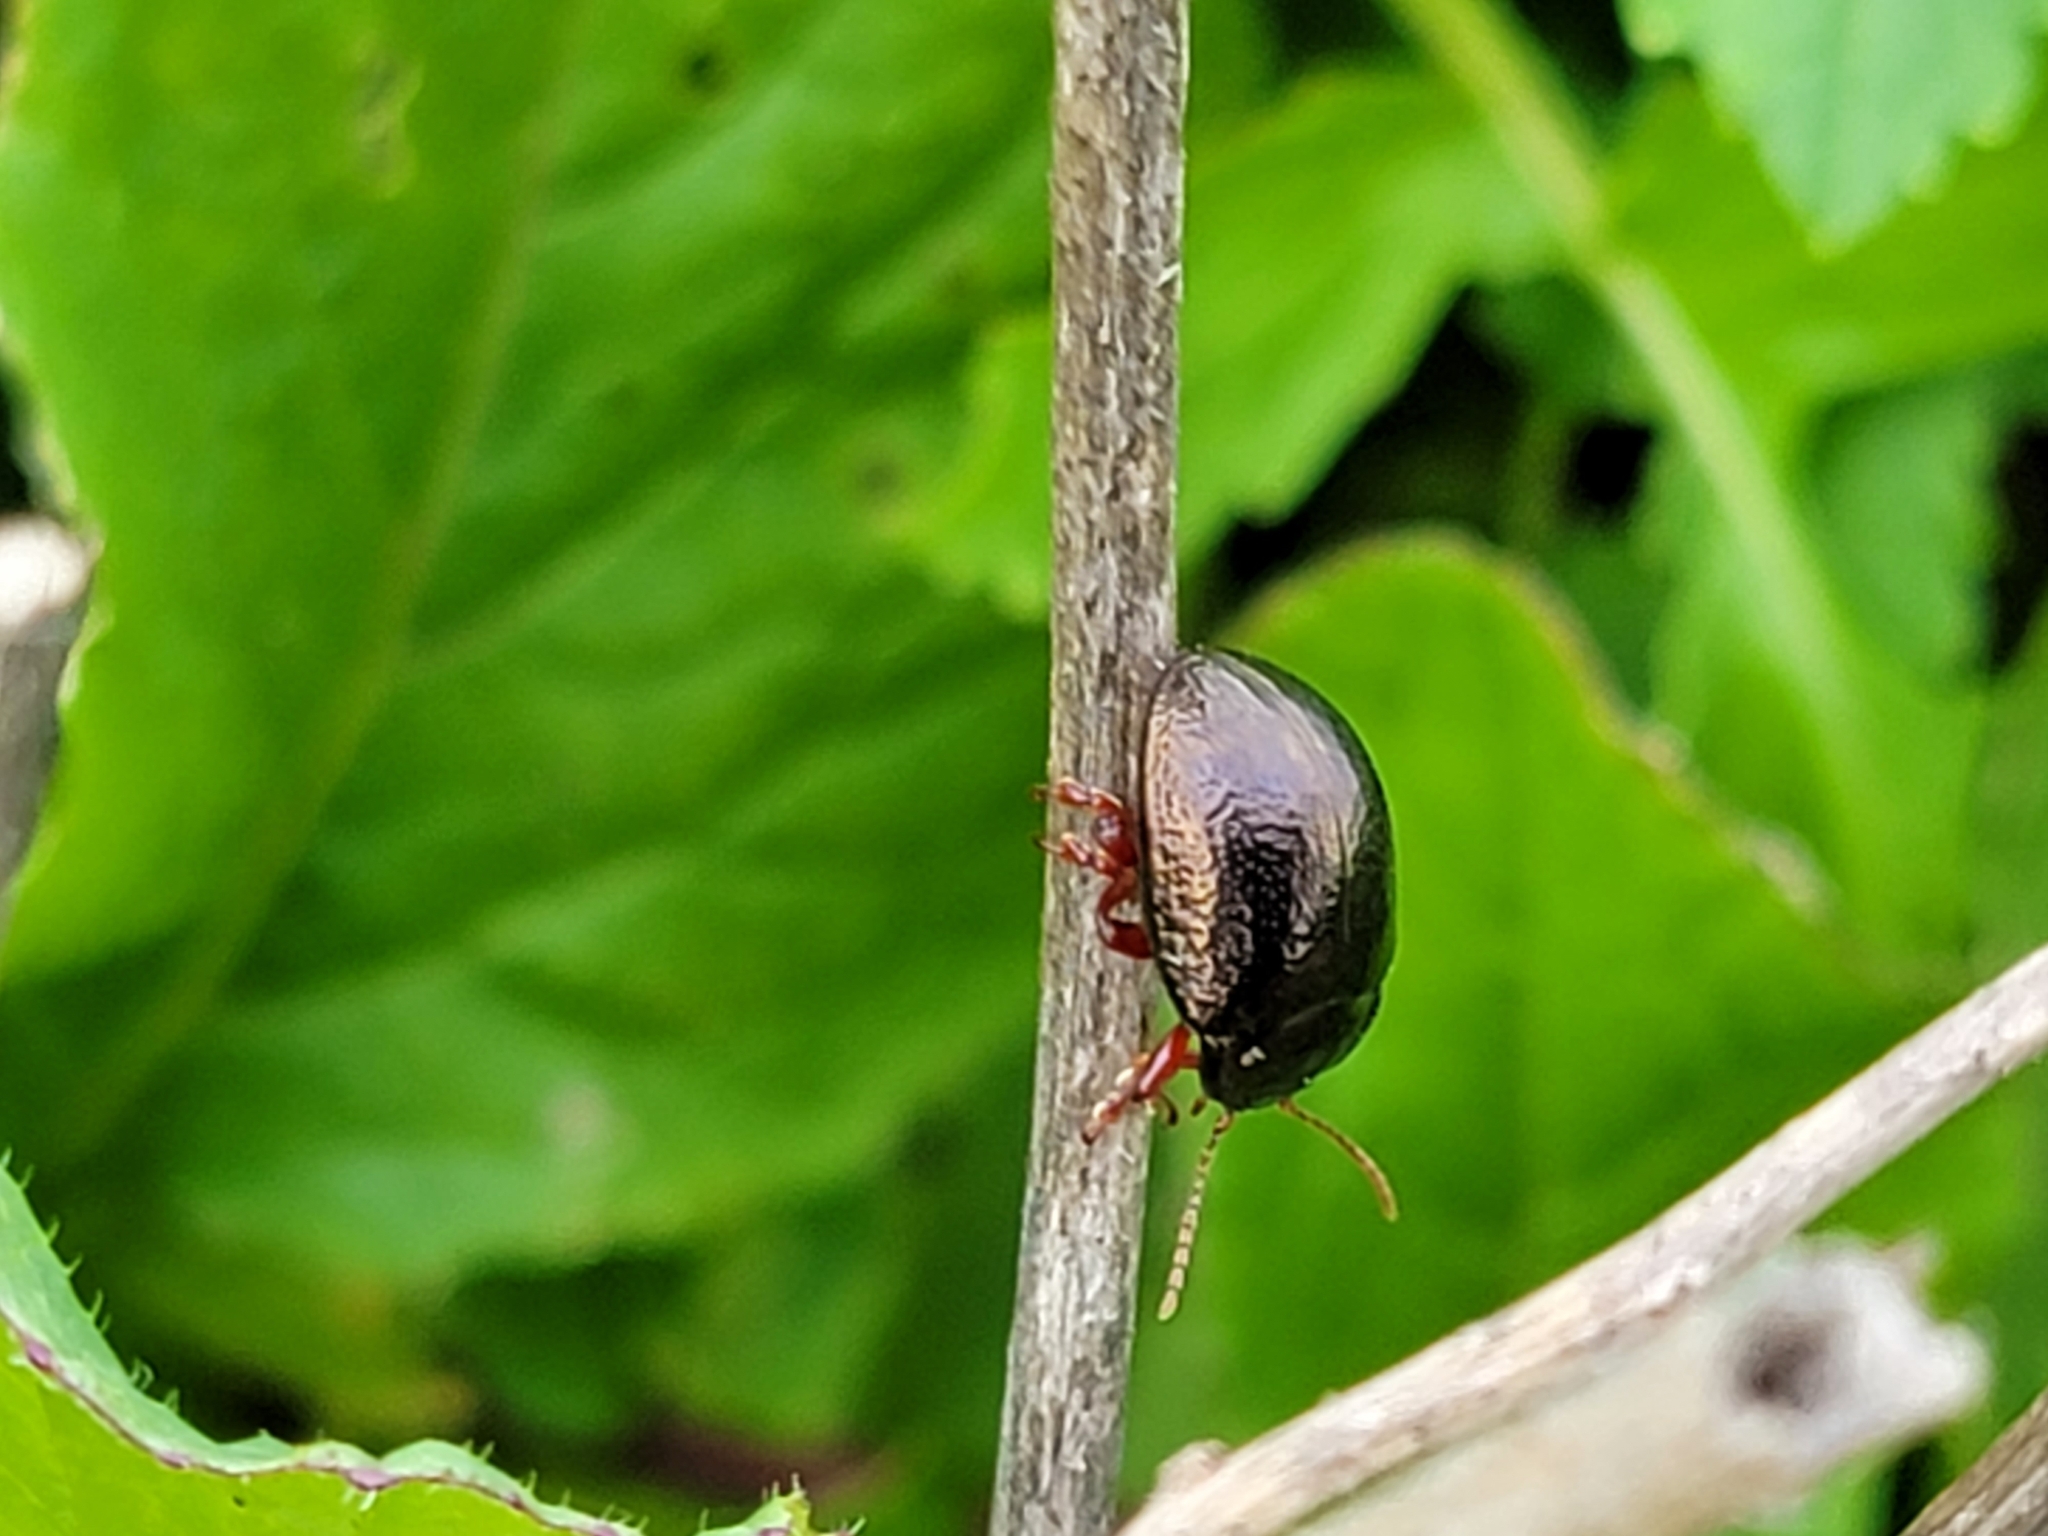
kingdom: Animalia
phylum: Arthropoda
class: Insecta
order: Coleoptera
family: Chrysomelidae
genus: Chrysolina
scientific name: Chrysolina bankii
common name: Leaf beetle
